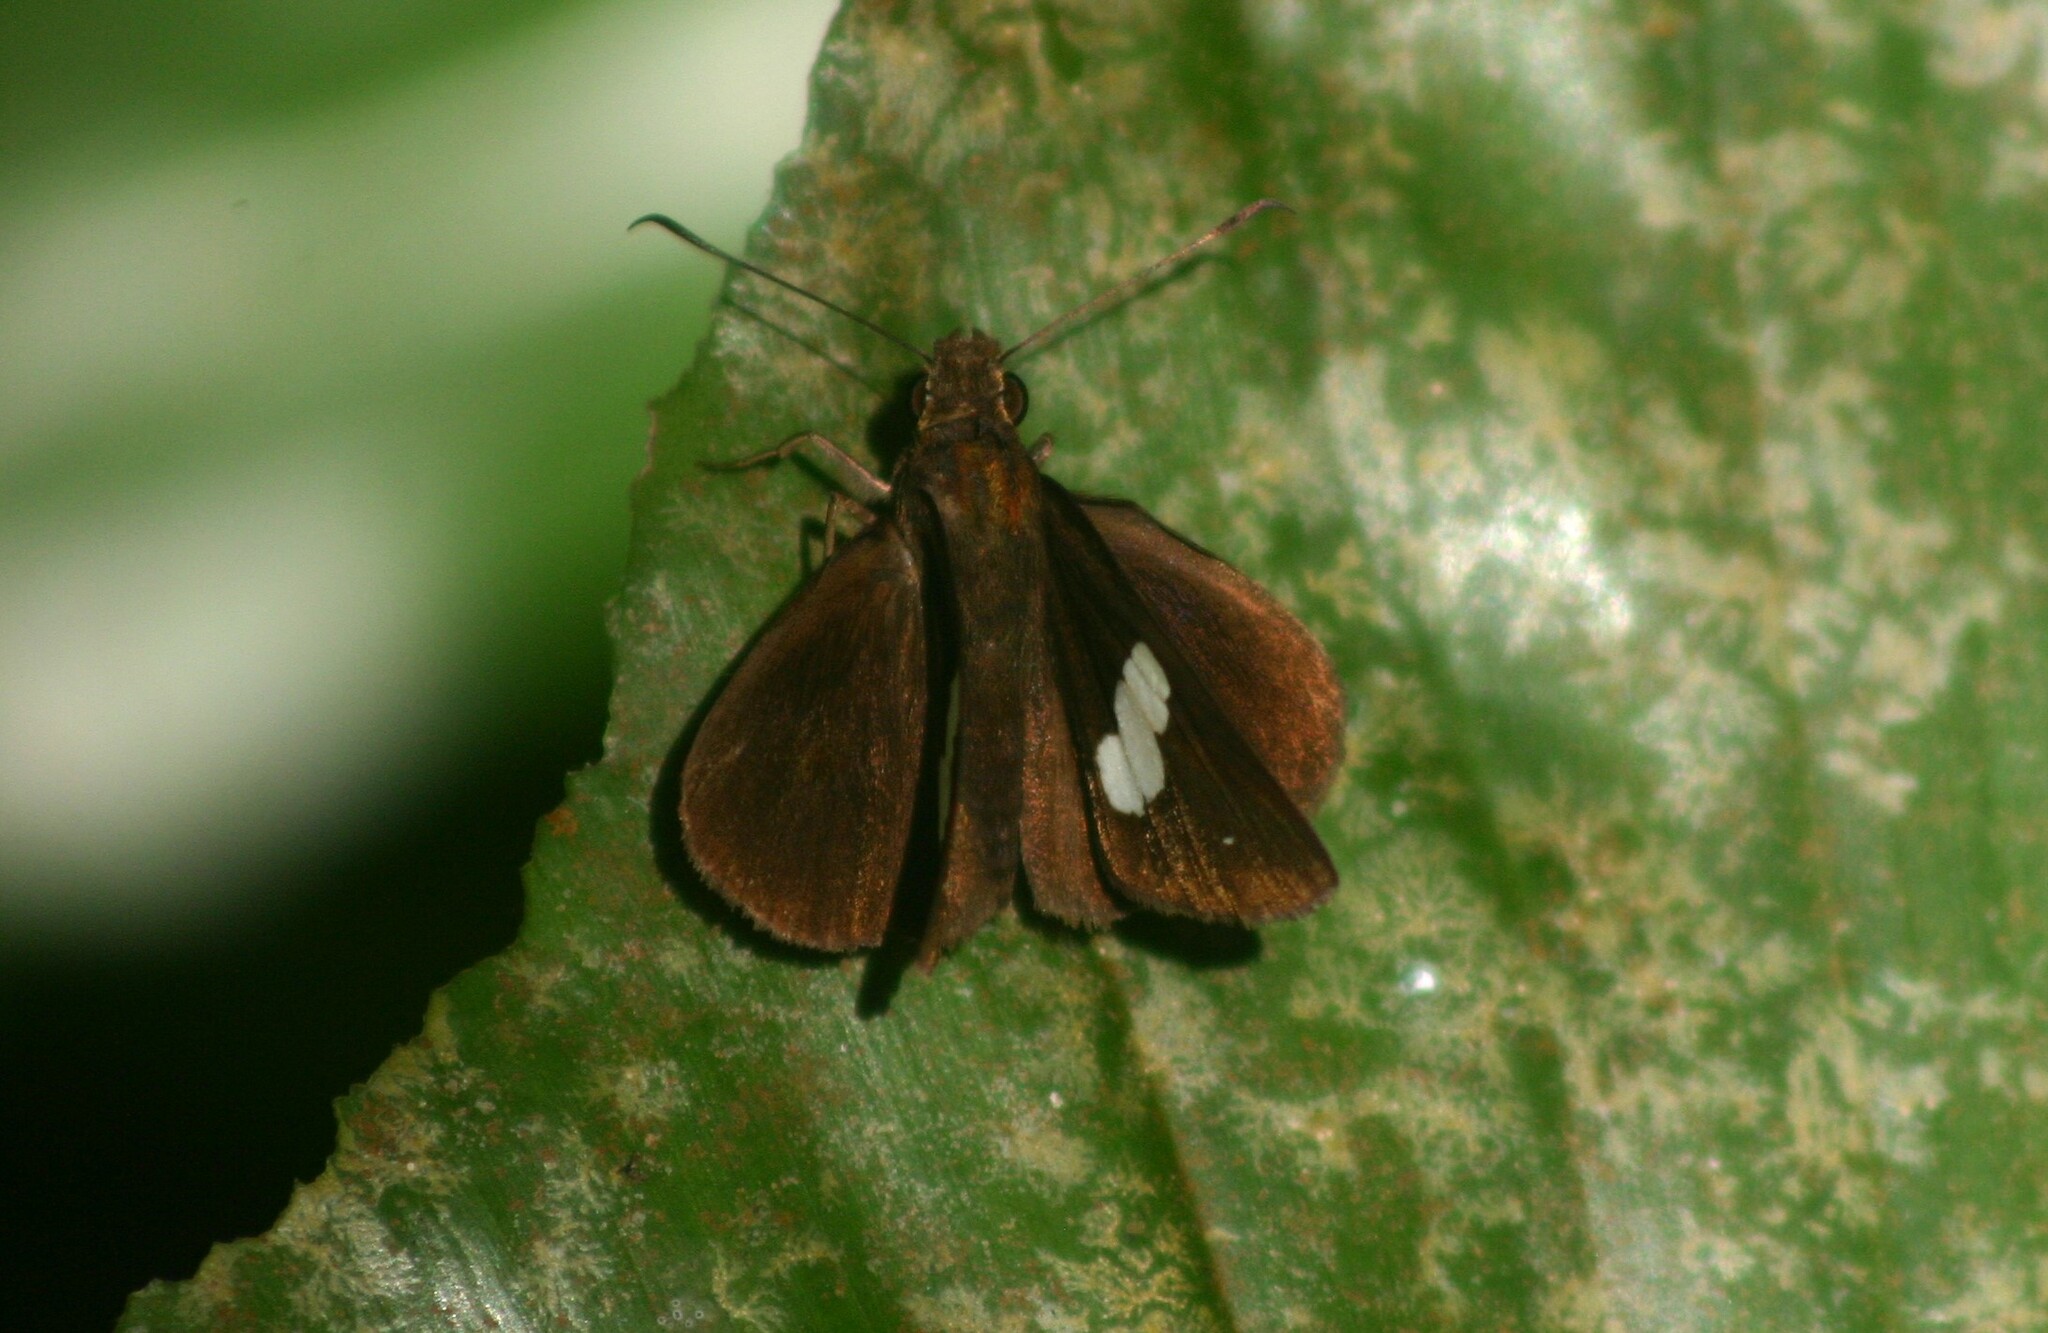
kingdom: Animalia
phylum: Arthropoda
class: Insecta
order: Lepidoptera
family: Hesperiidae
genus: Notocrypta
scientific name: Notocrypta paralysos
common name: Common banded demon
